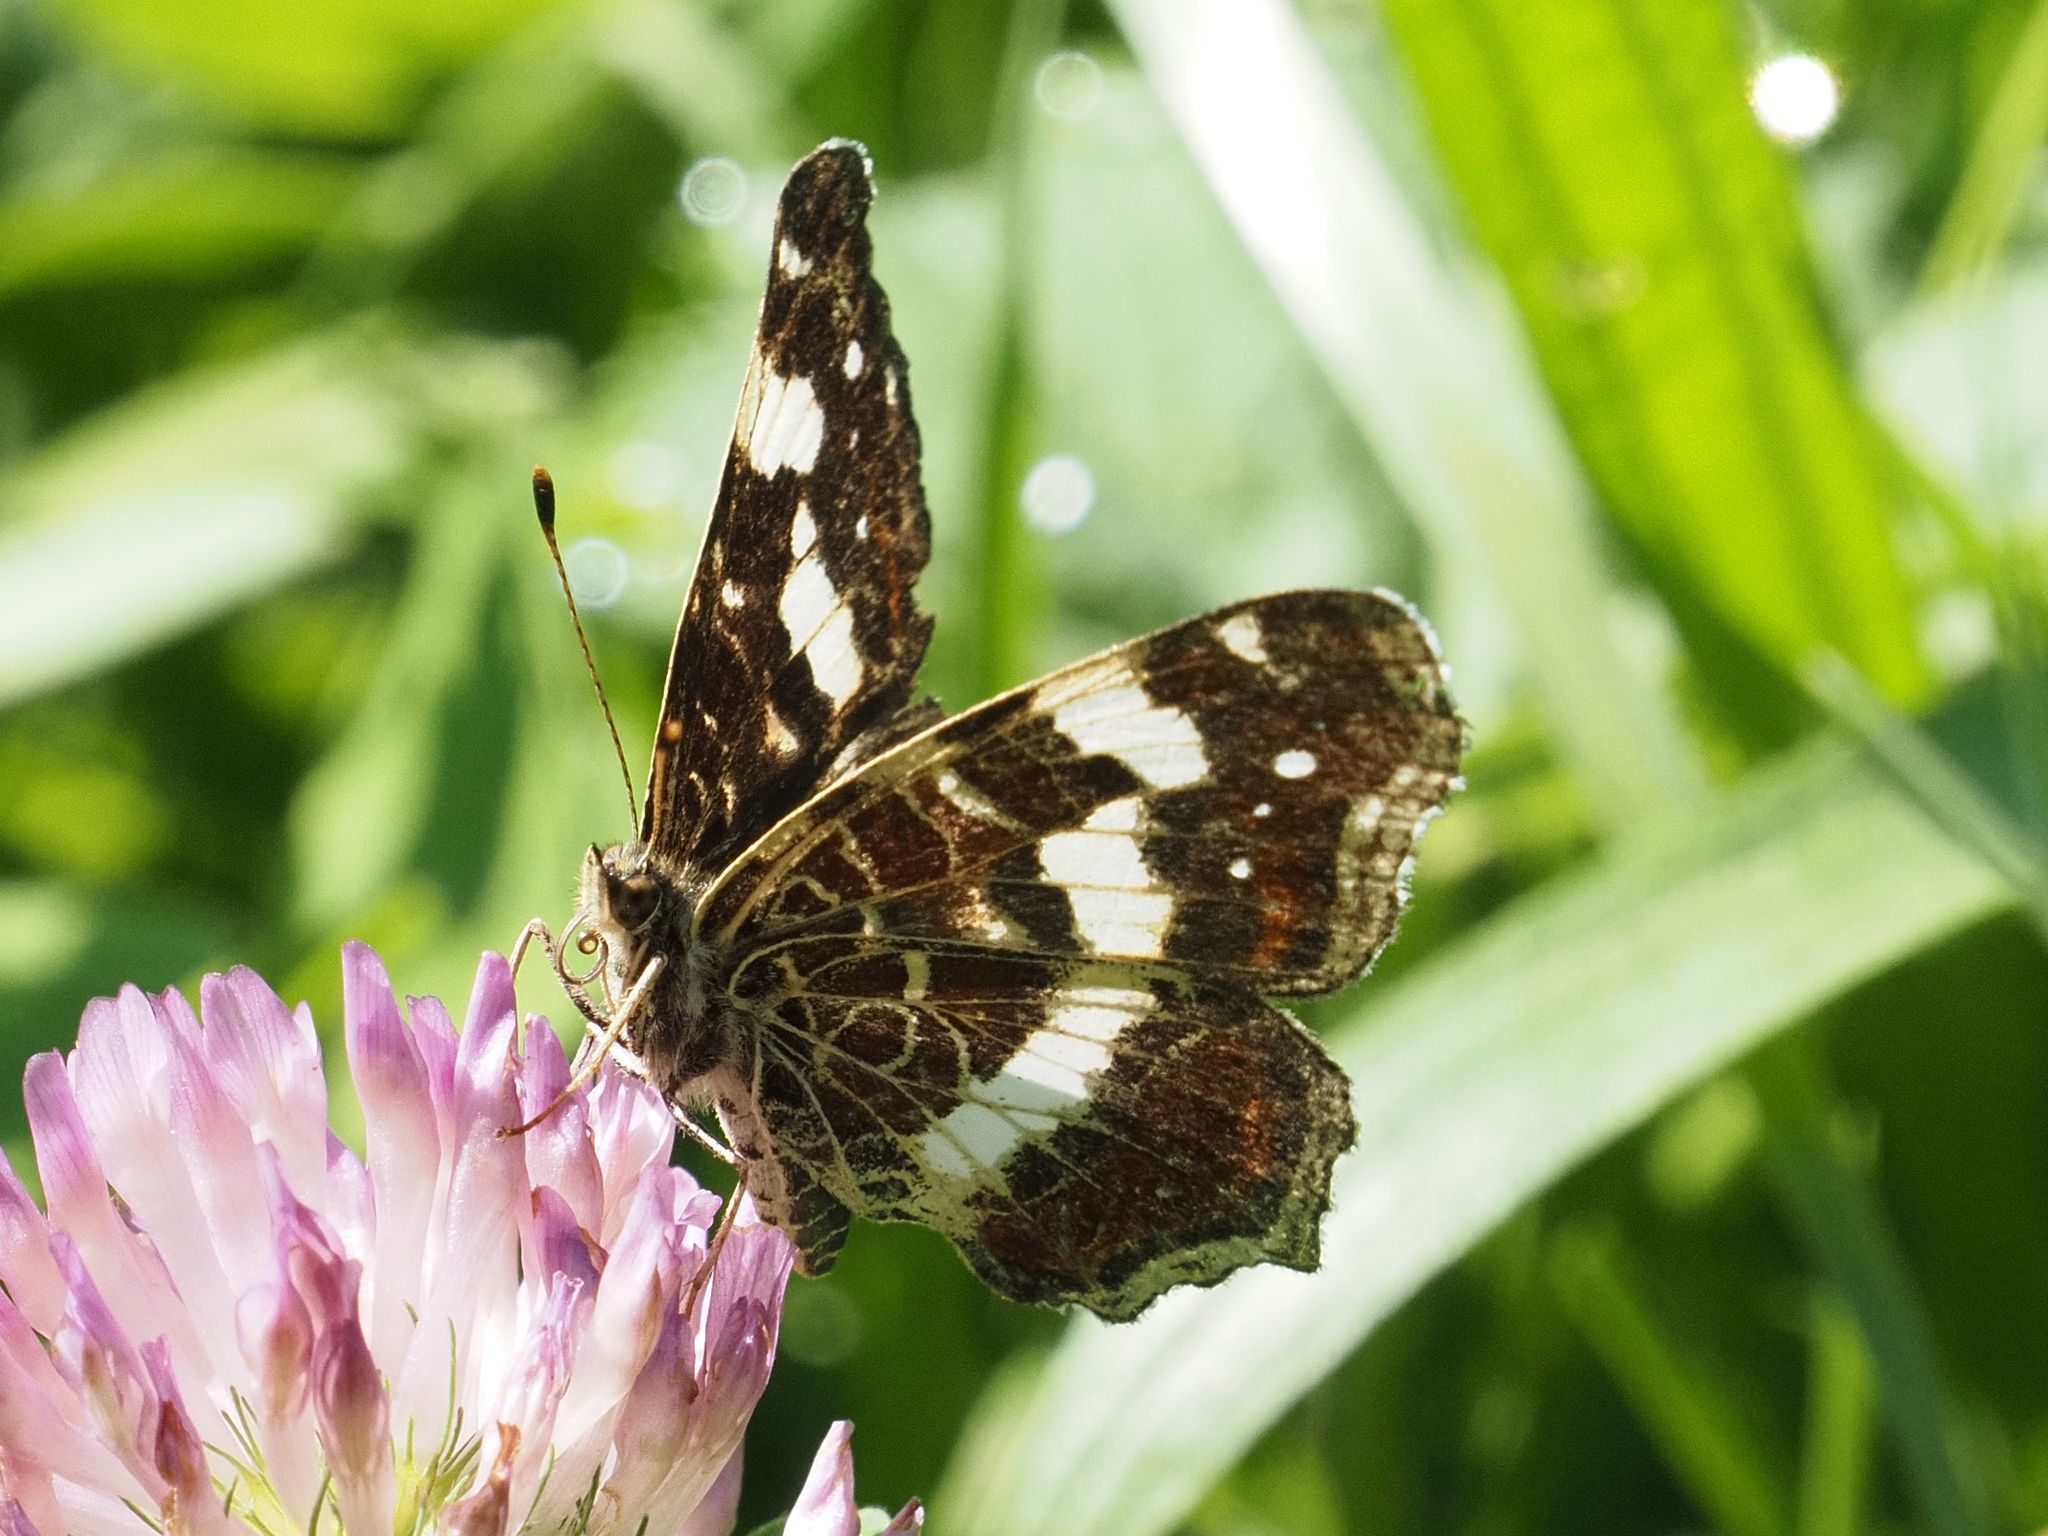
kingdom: Animalia
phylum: Arthropoda
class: Insecta
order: Lepidoptera
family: Nymphalidae
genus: Araschnia
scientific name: Araschnia levana
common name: Map butterfly
